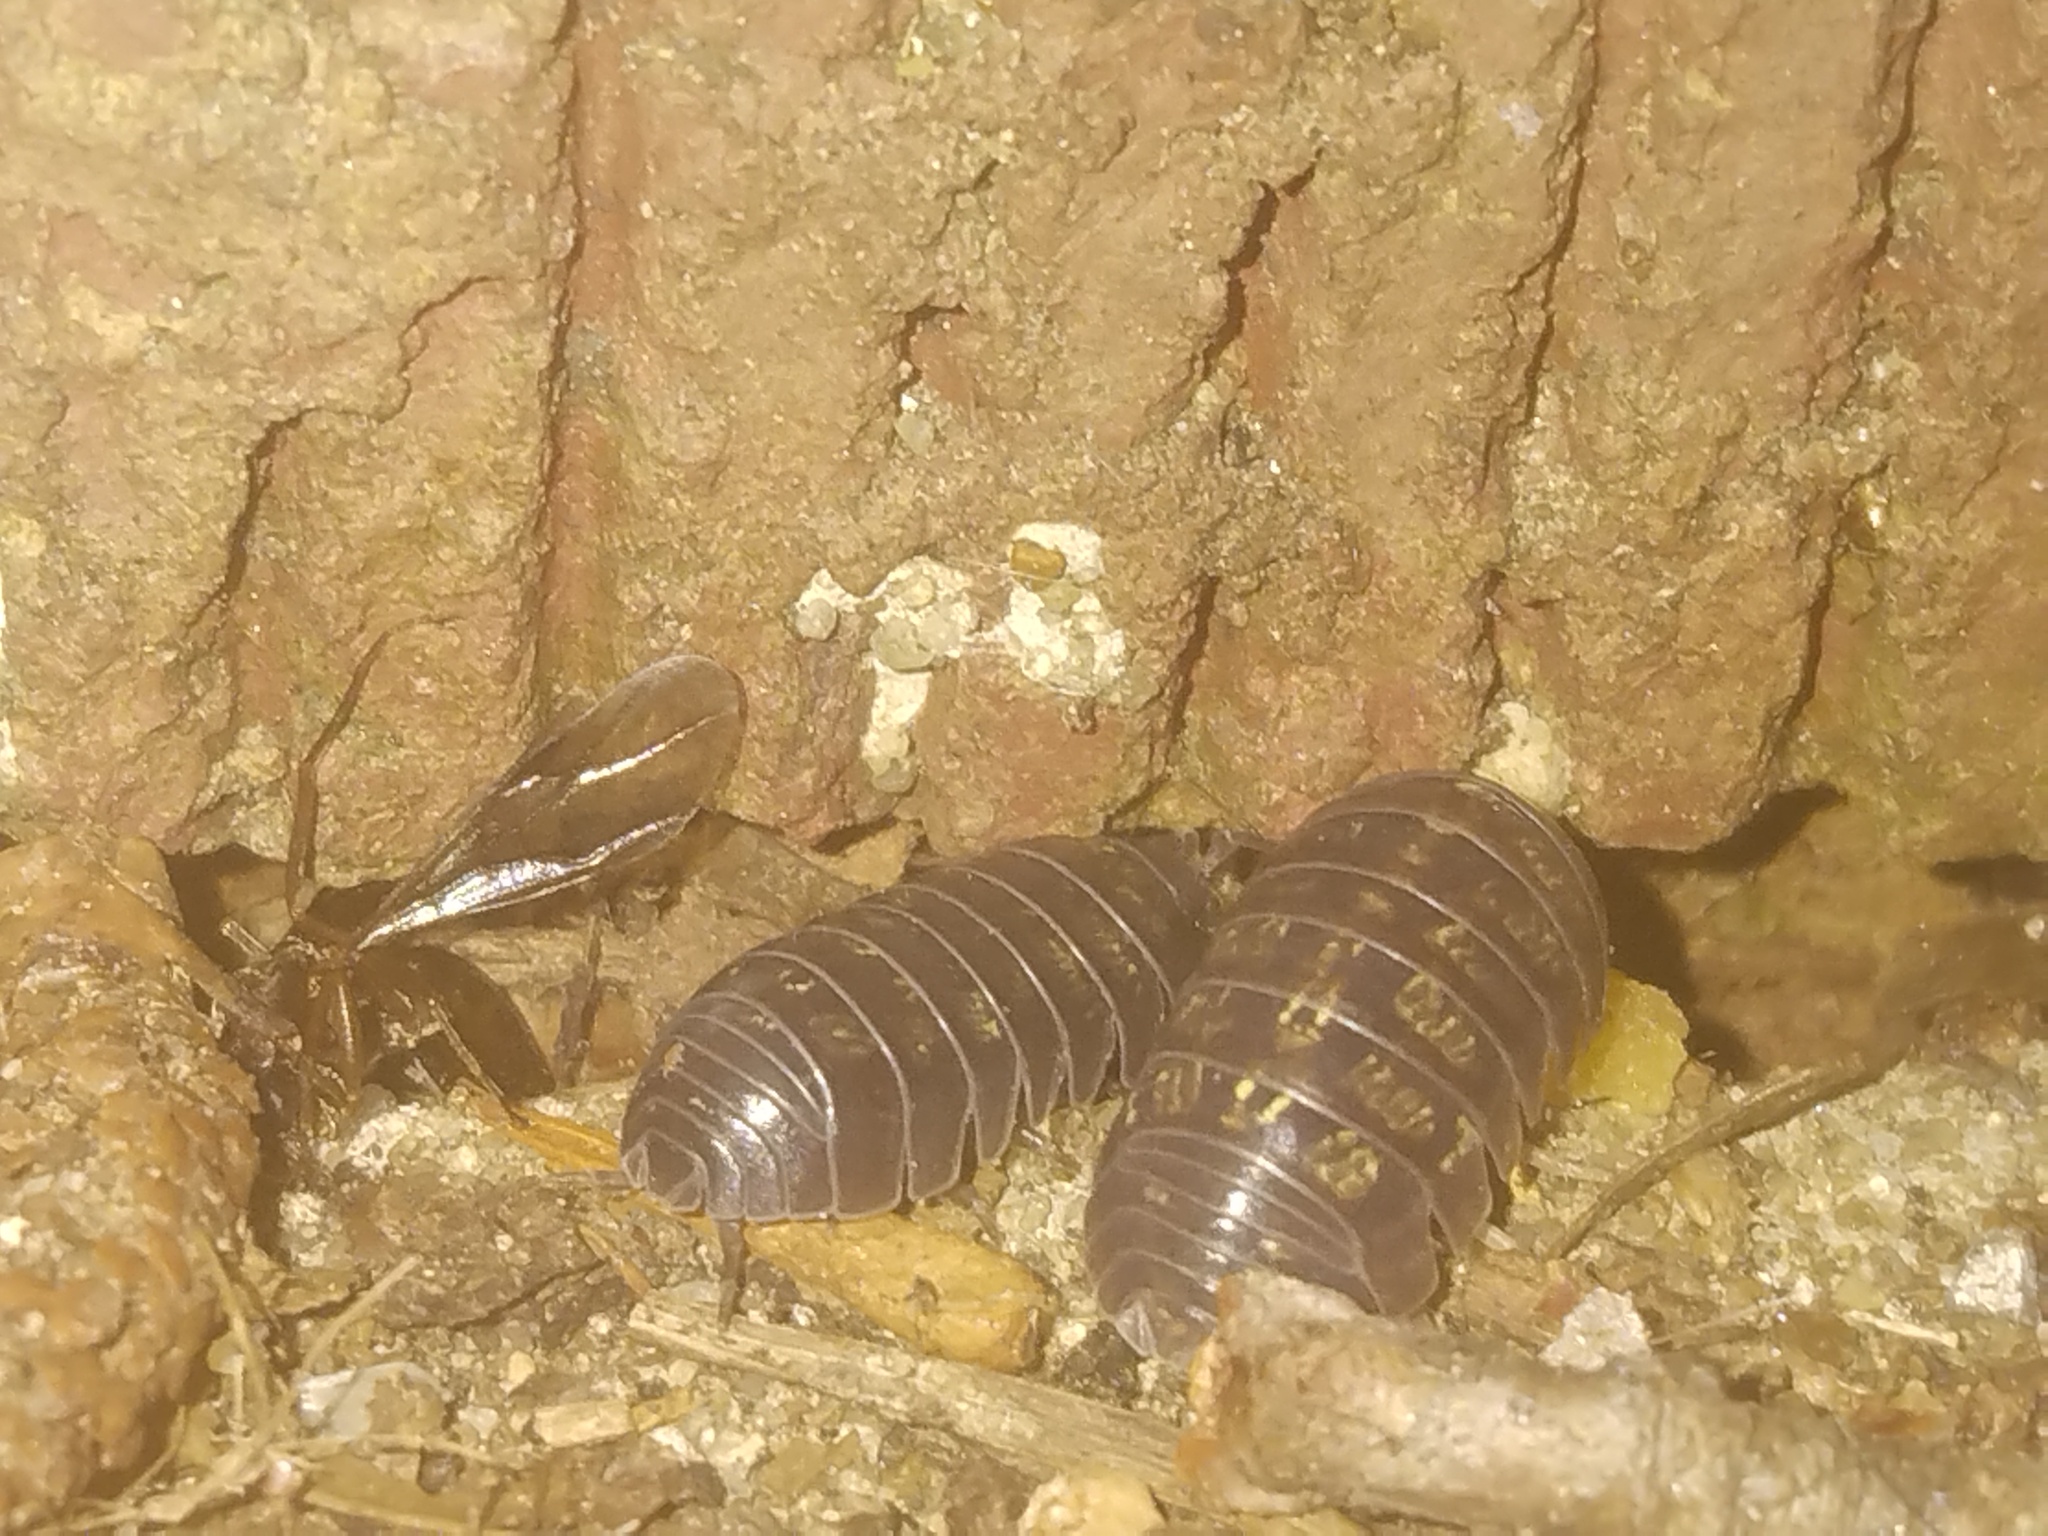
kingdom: Animalia
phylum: Arthropoda
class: Malacostraca
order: Isopoda
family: Armadillidiidae
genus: Armadillidium
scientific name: Armadillidium vulgare
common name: Common pill woodlouse
